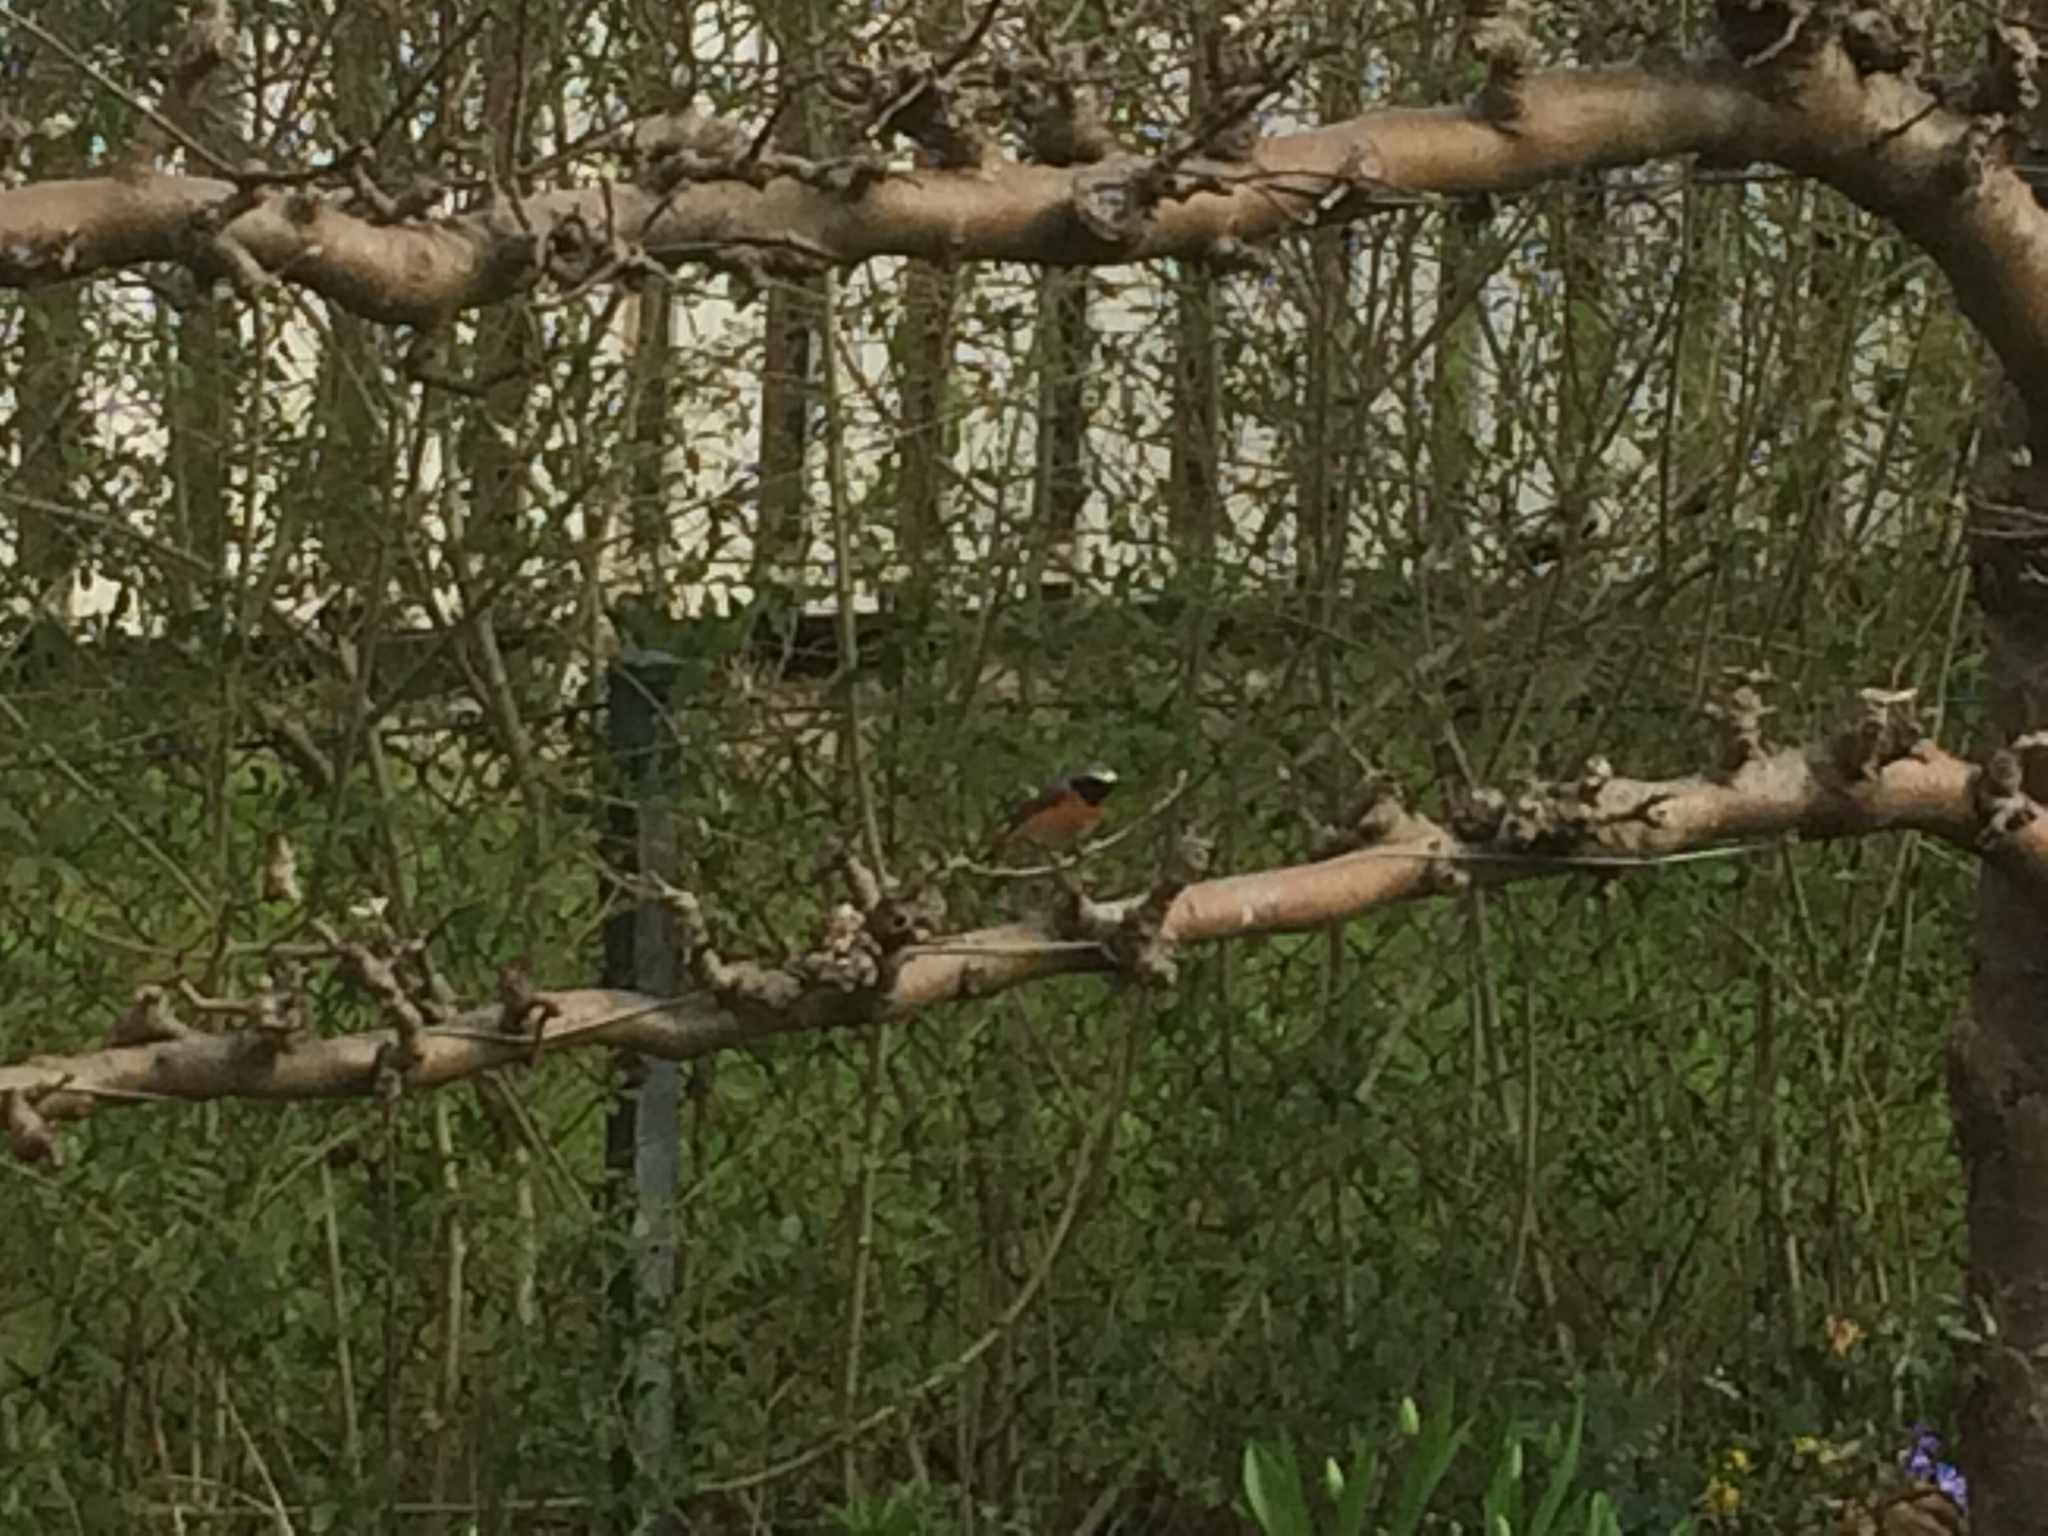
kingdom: Animalia
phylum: Chordata
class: Aves
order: Passeriformes
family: Muscicapidae
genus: Phoenicurus
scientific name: Phoenicurus phoenicurus
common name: Common redstart
